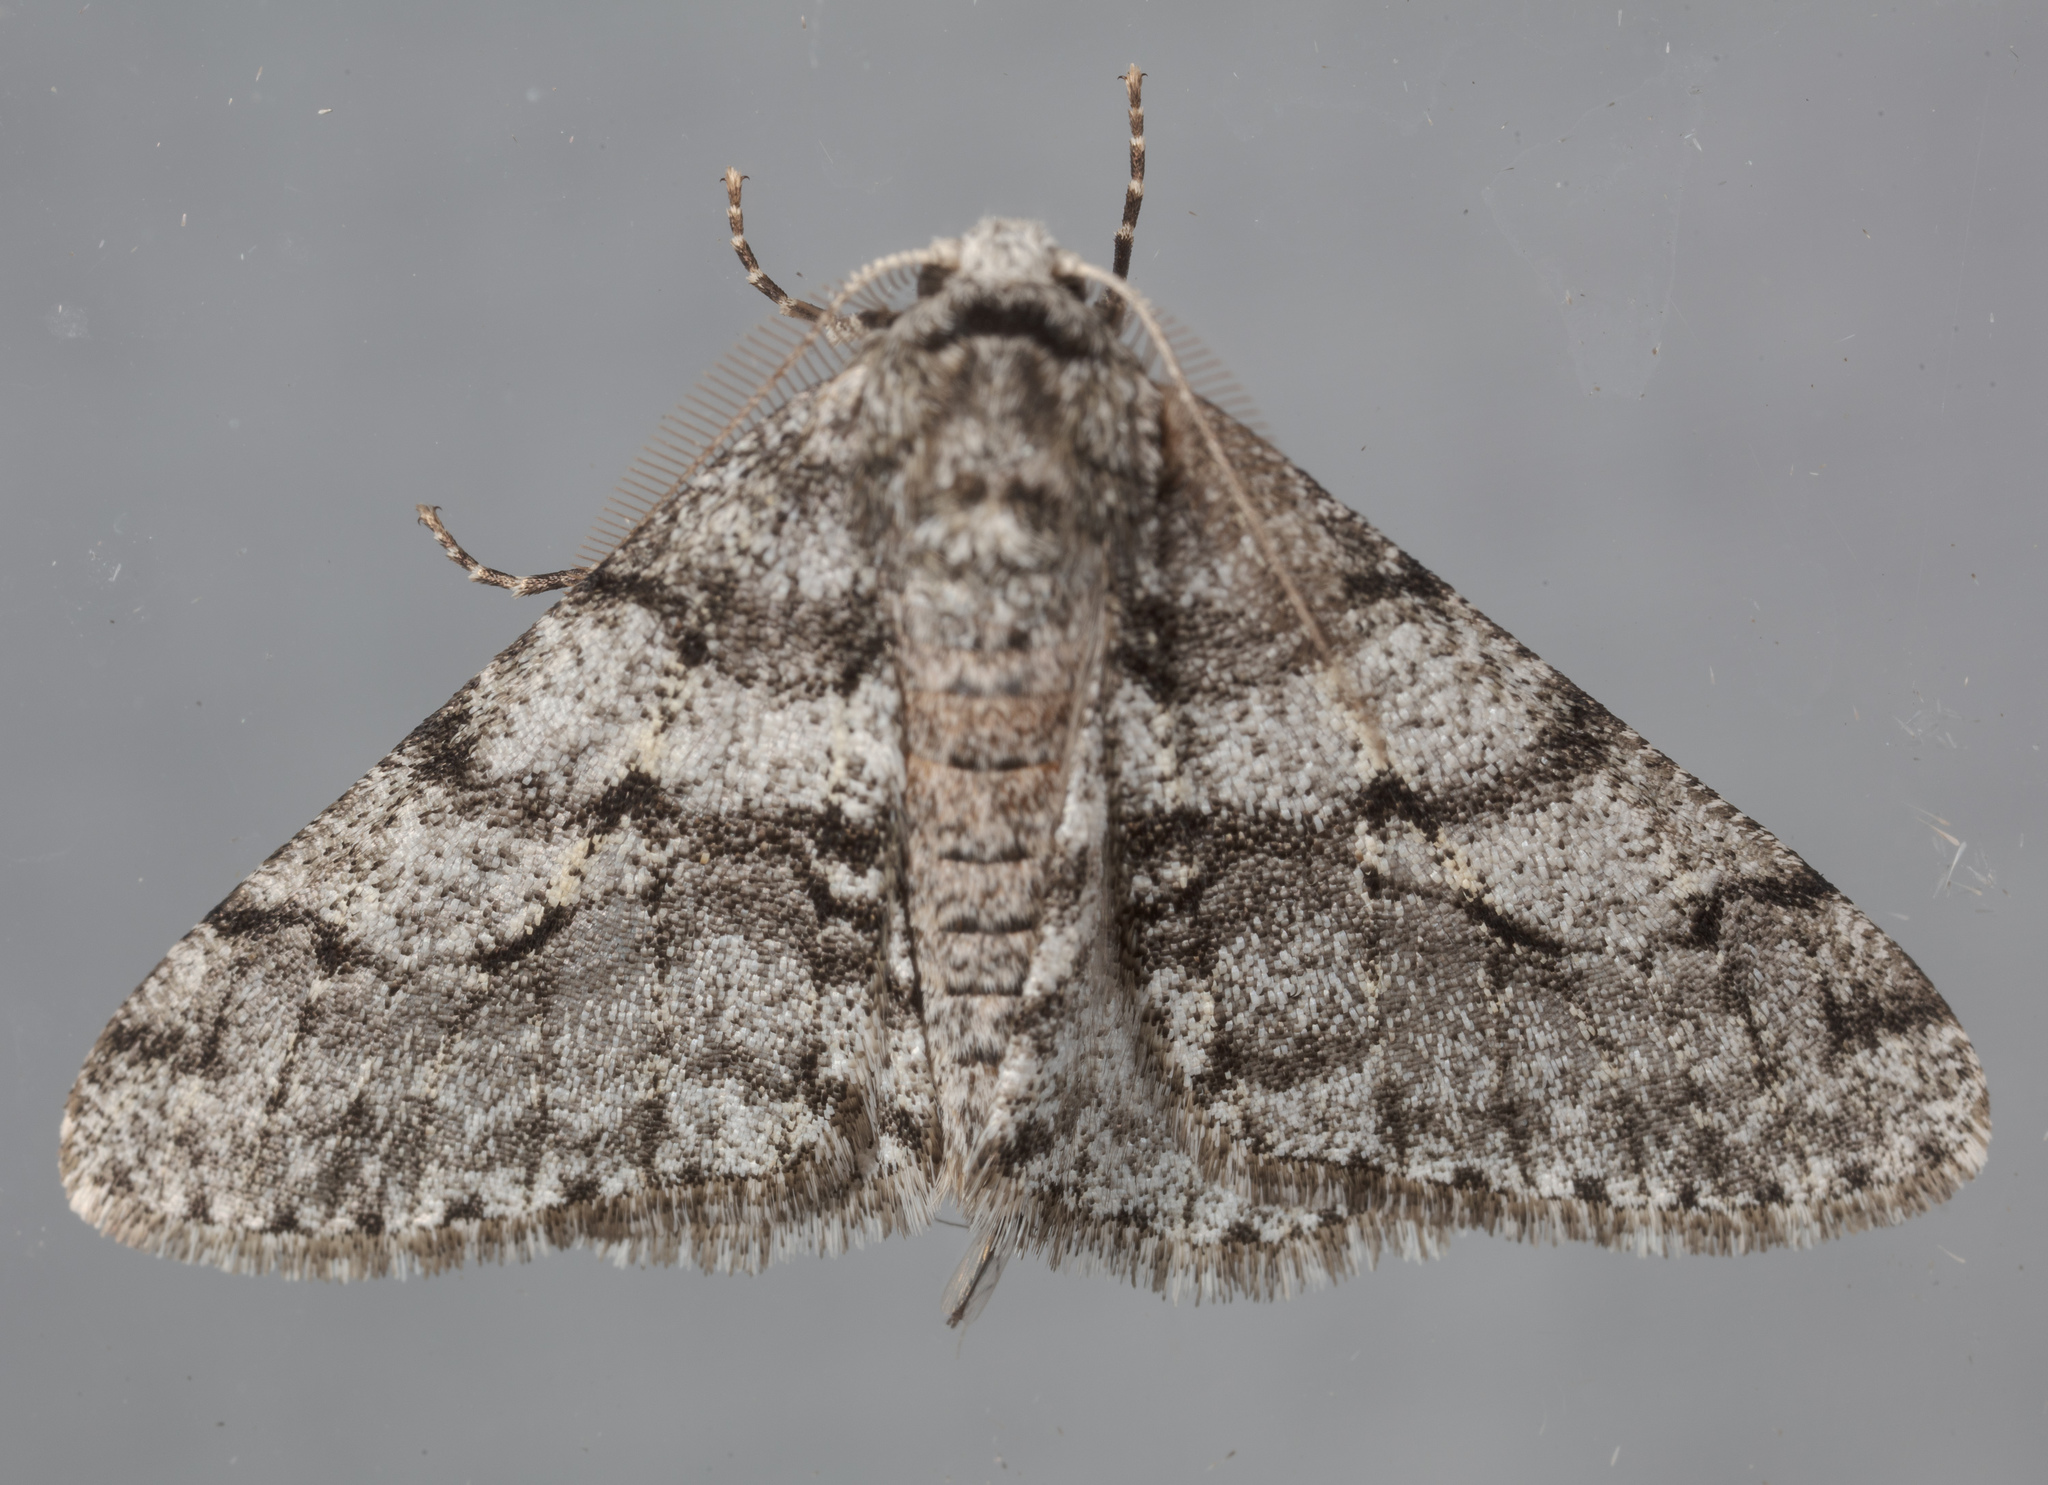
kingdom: Animalia
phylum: Arthropoda
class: Insecta
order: Lepidoptera
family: Geometridae
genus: Phigalia
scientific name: Phigalia titea
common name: Spiny looper
